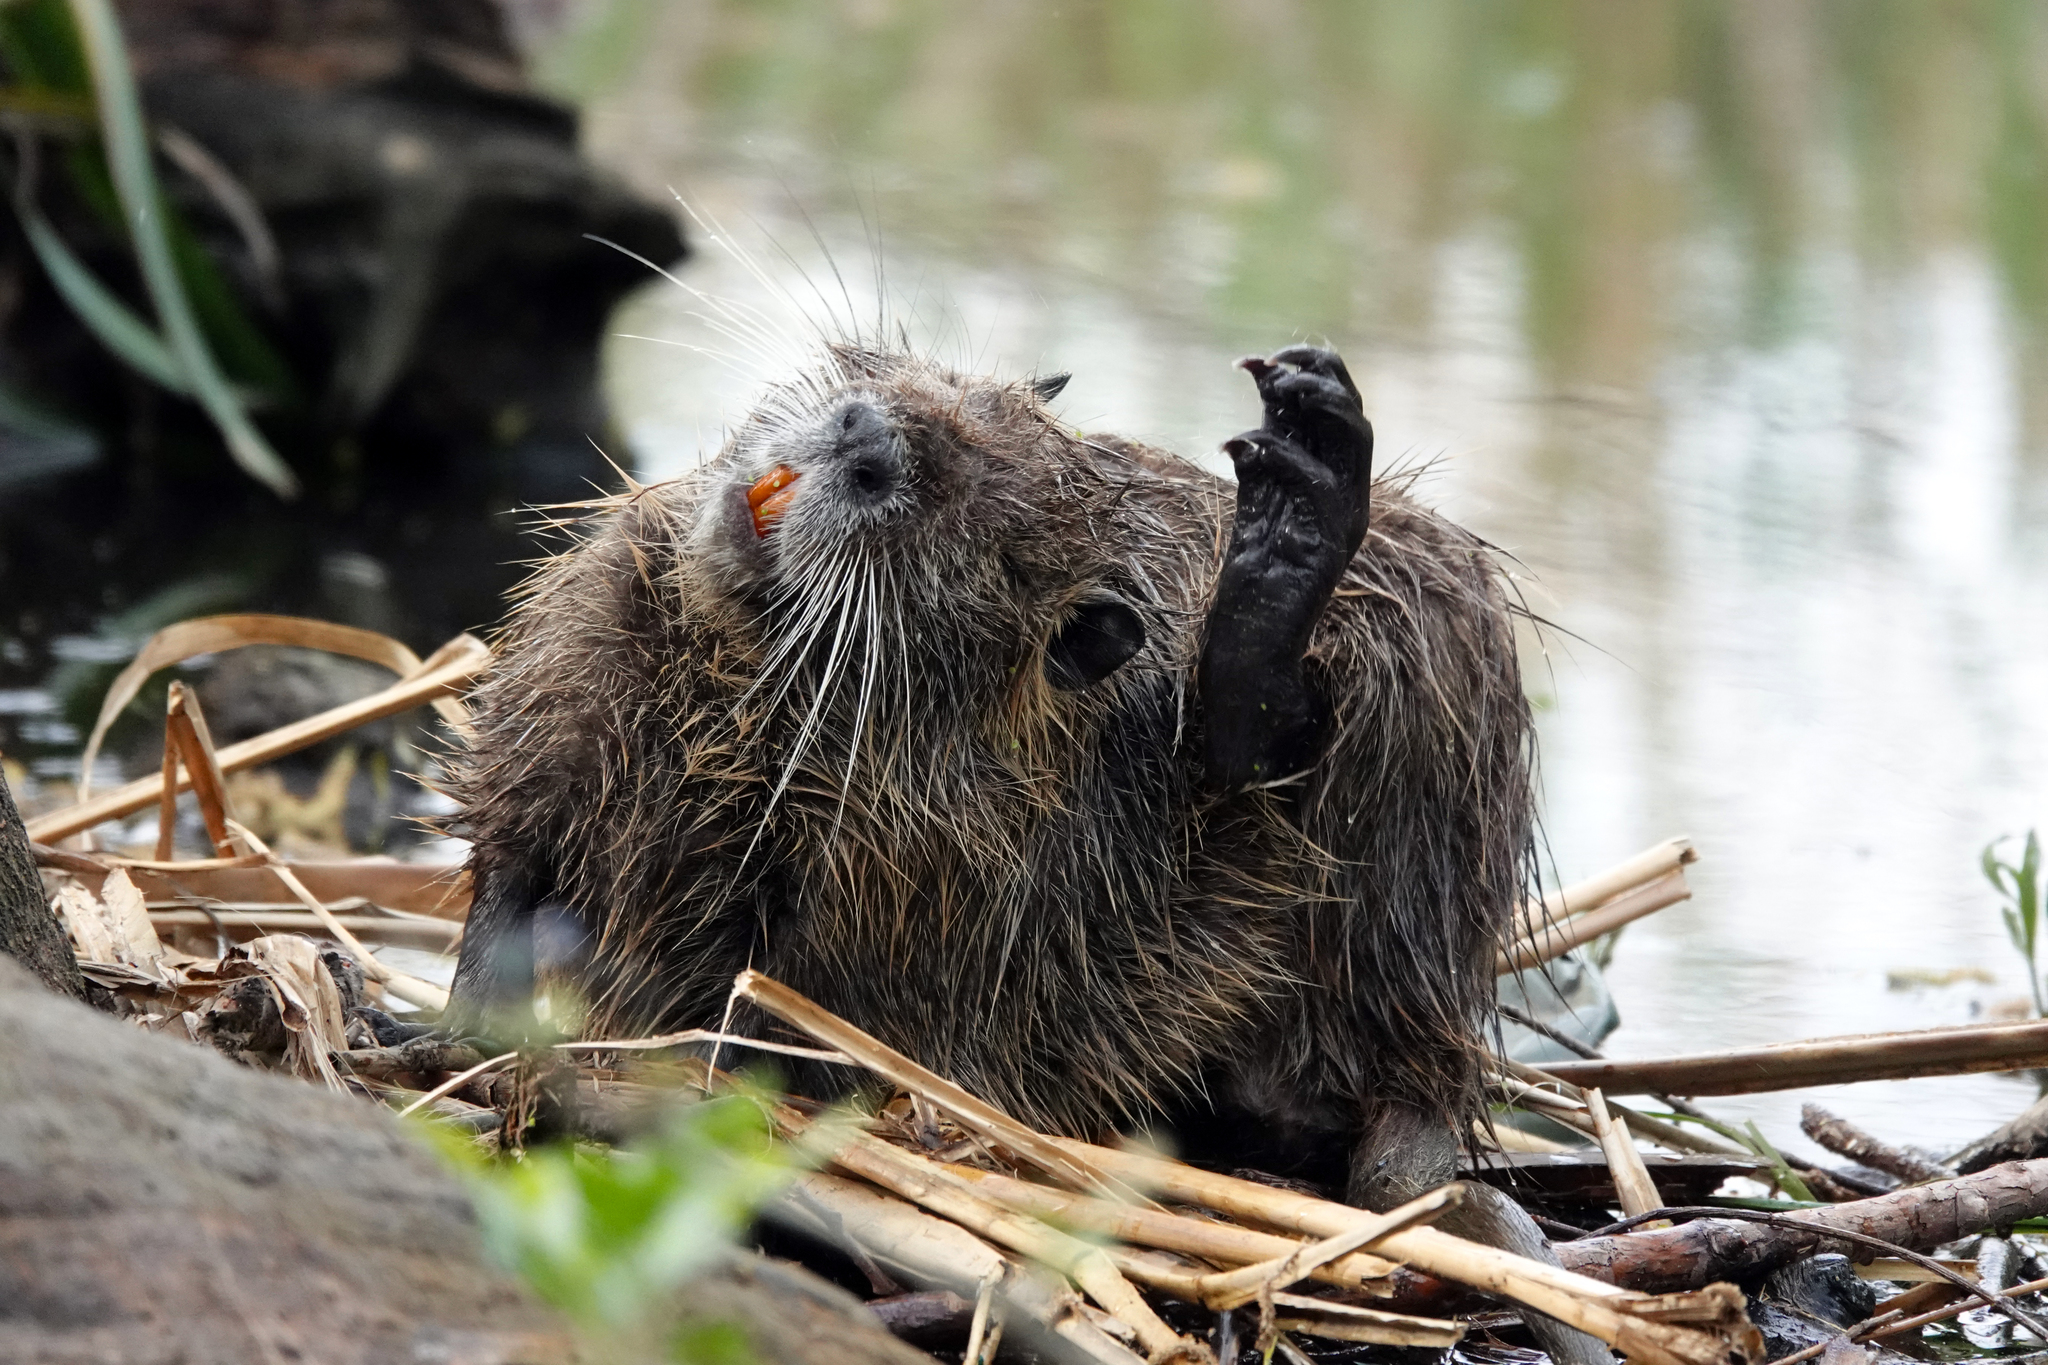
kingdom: Animalia
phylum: Chordata
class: Mammalia
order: Rodentia
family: Myocastoridae
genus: Myocastor
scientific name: Myocastor coypus
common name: Coypu
